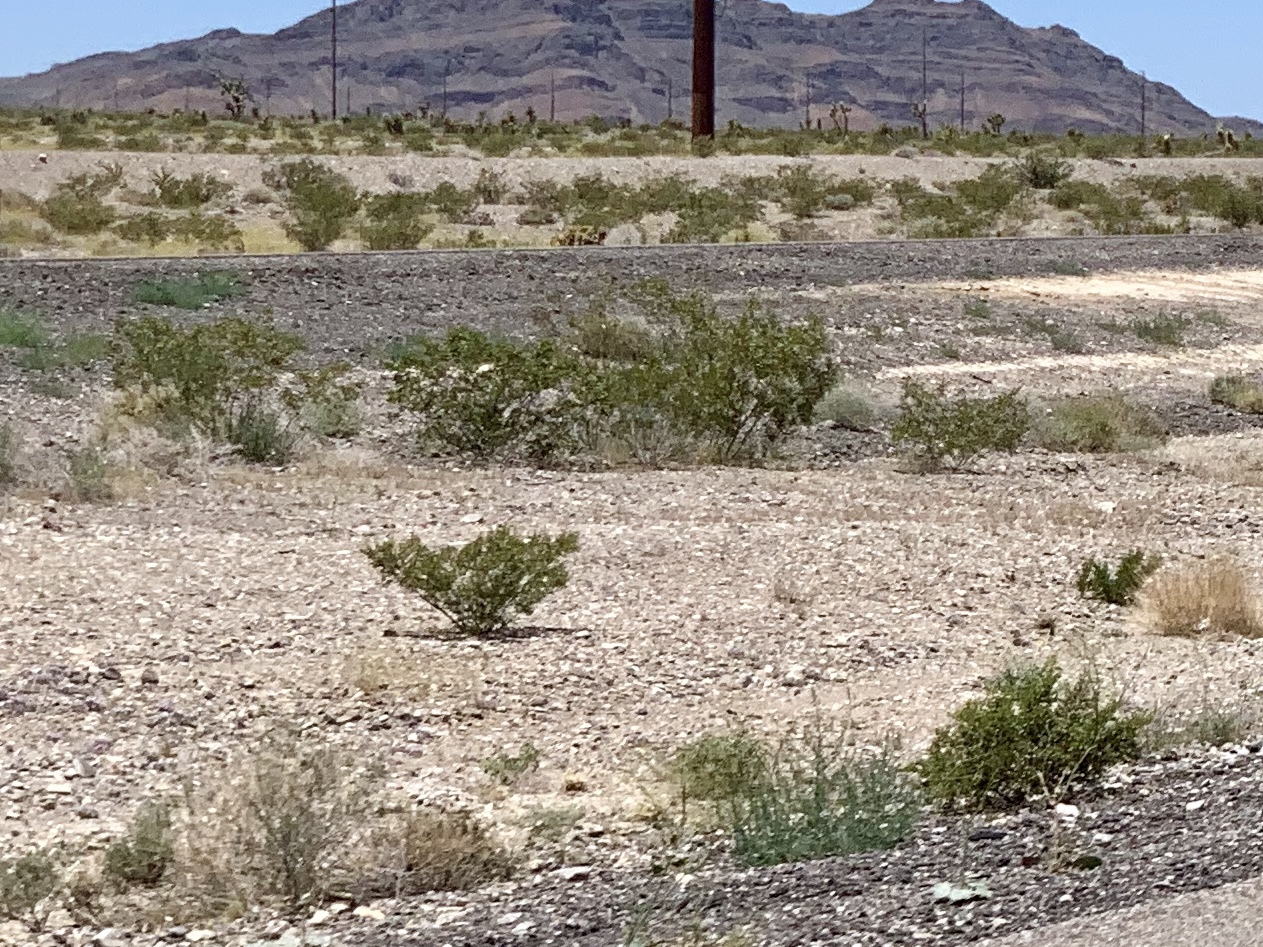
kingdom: Plantae
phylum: Tracheophyta
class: Magnoliopsida
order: Zygophyllales
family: Zygophyllaceae
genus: Larrea
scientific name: Larrea tridentata
